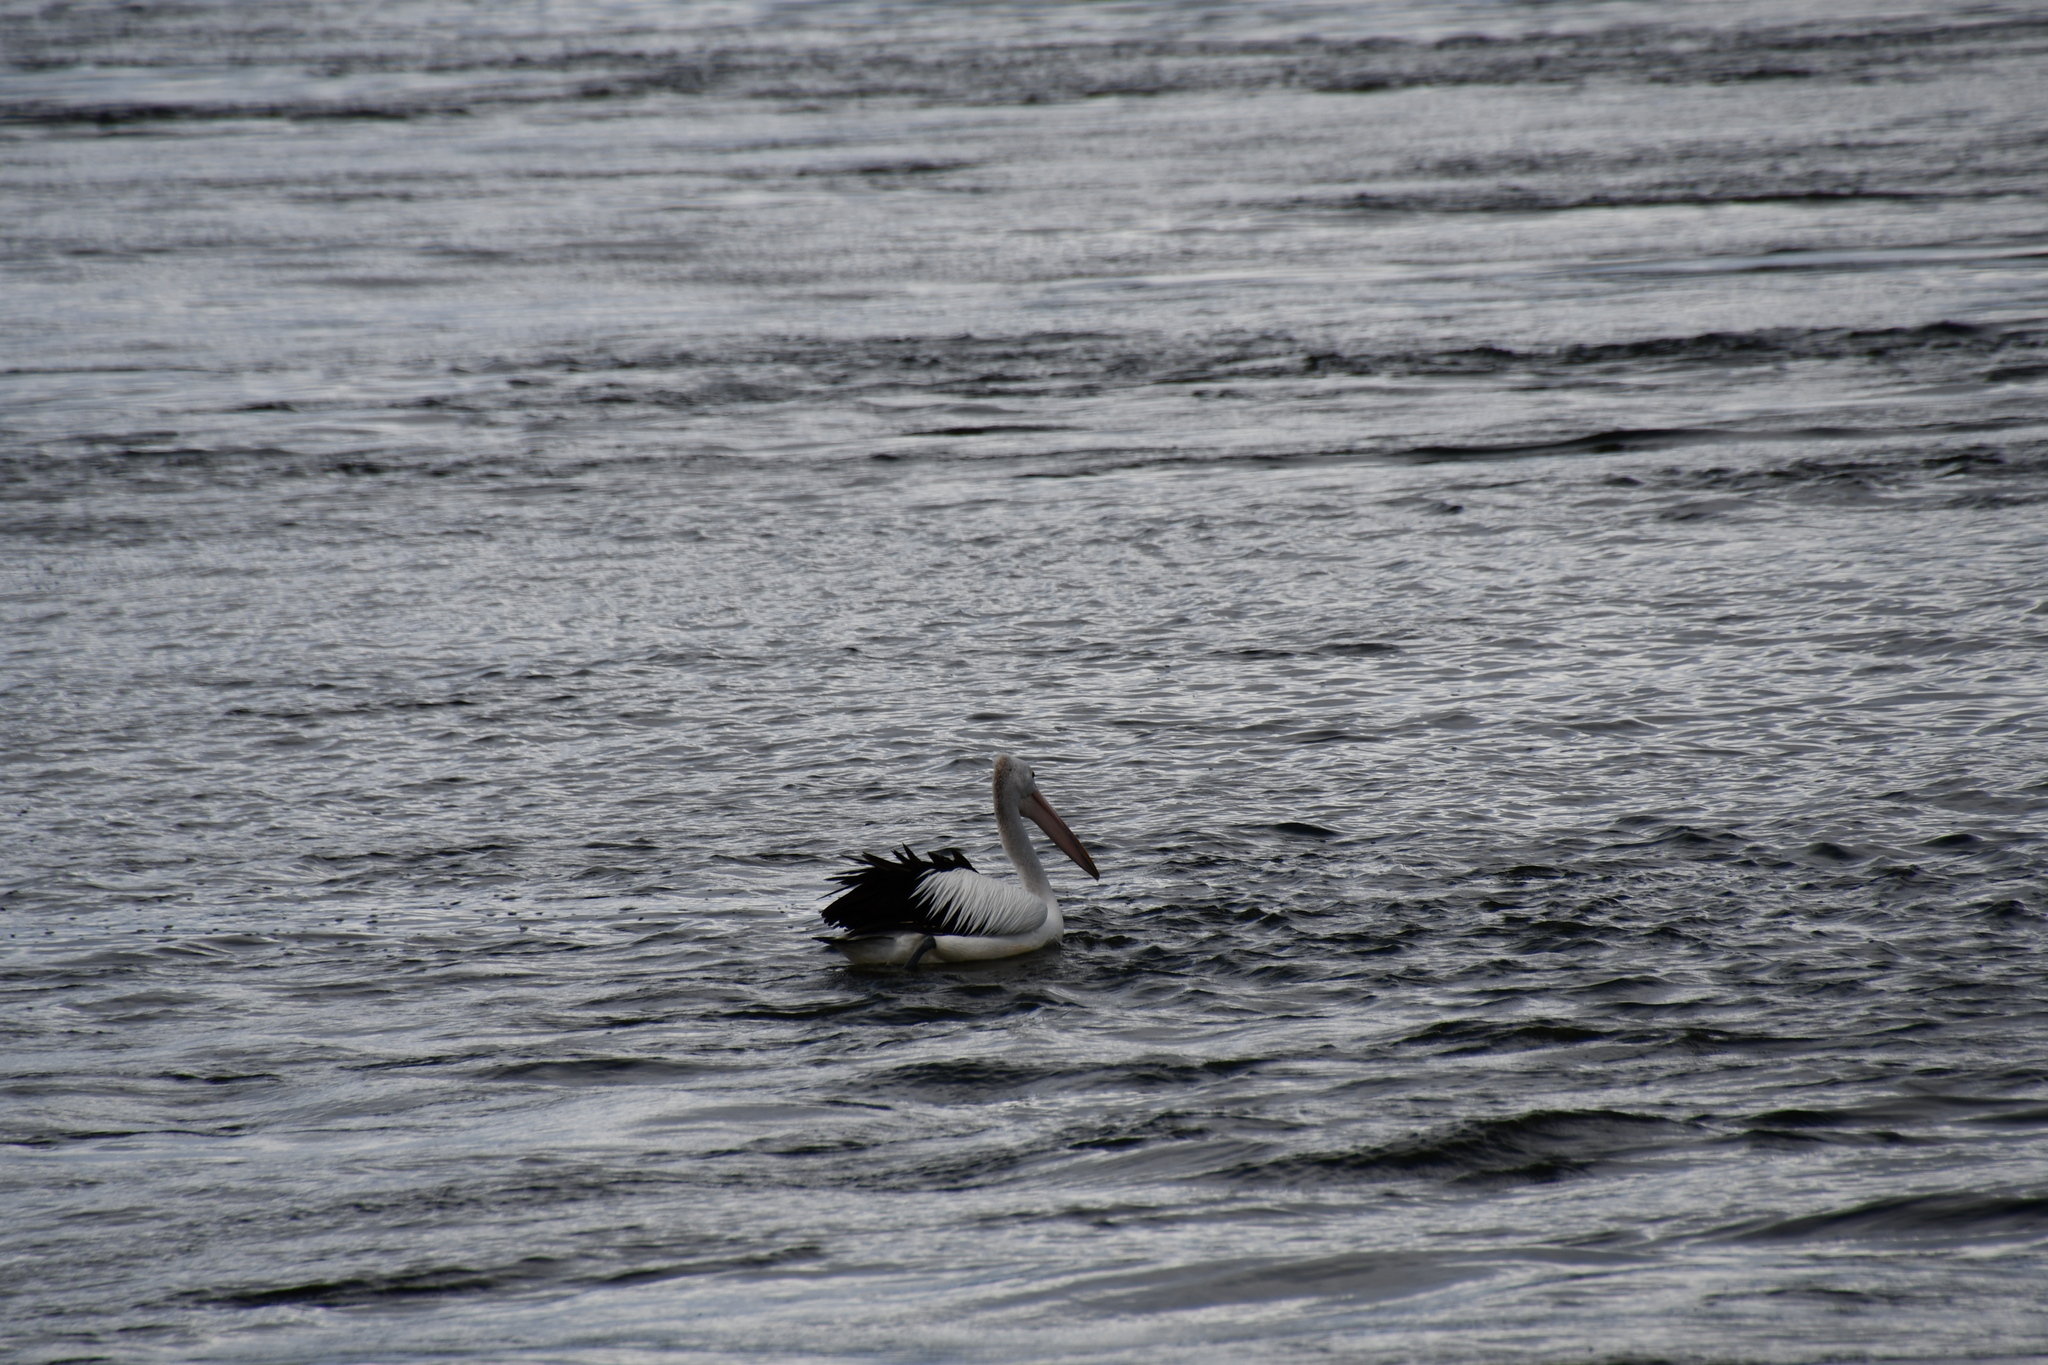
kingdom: Animalia
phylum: Chordata
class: Aves
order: Pelecaniformes
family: Pelecanidae
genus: Pelecanus
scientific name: Pelecanus conspicillatus
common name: Australian pelican
